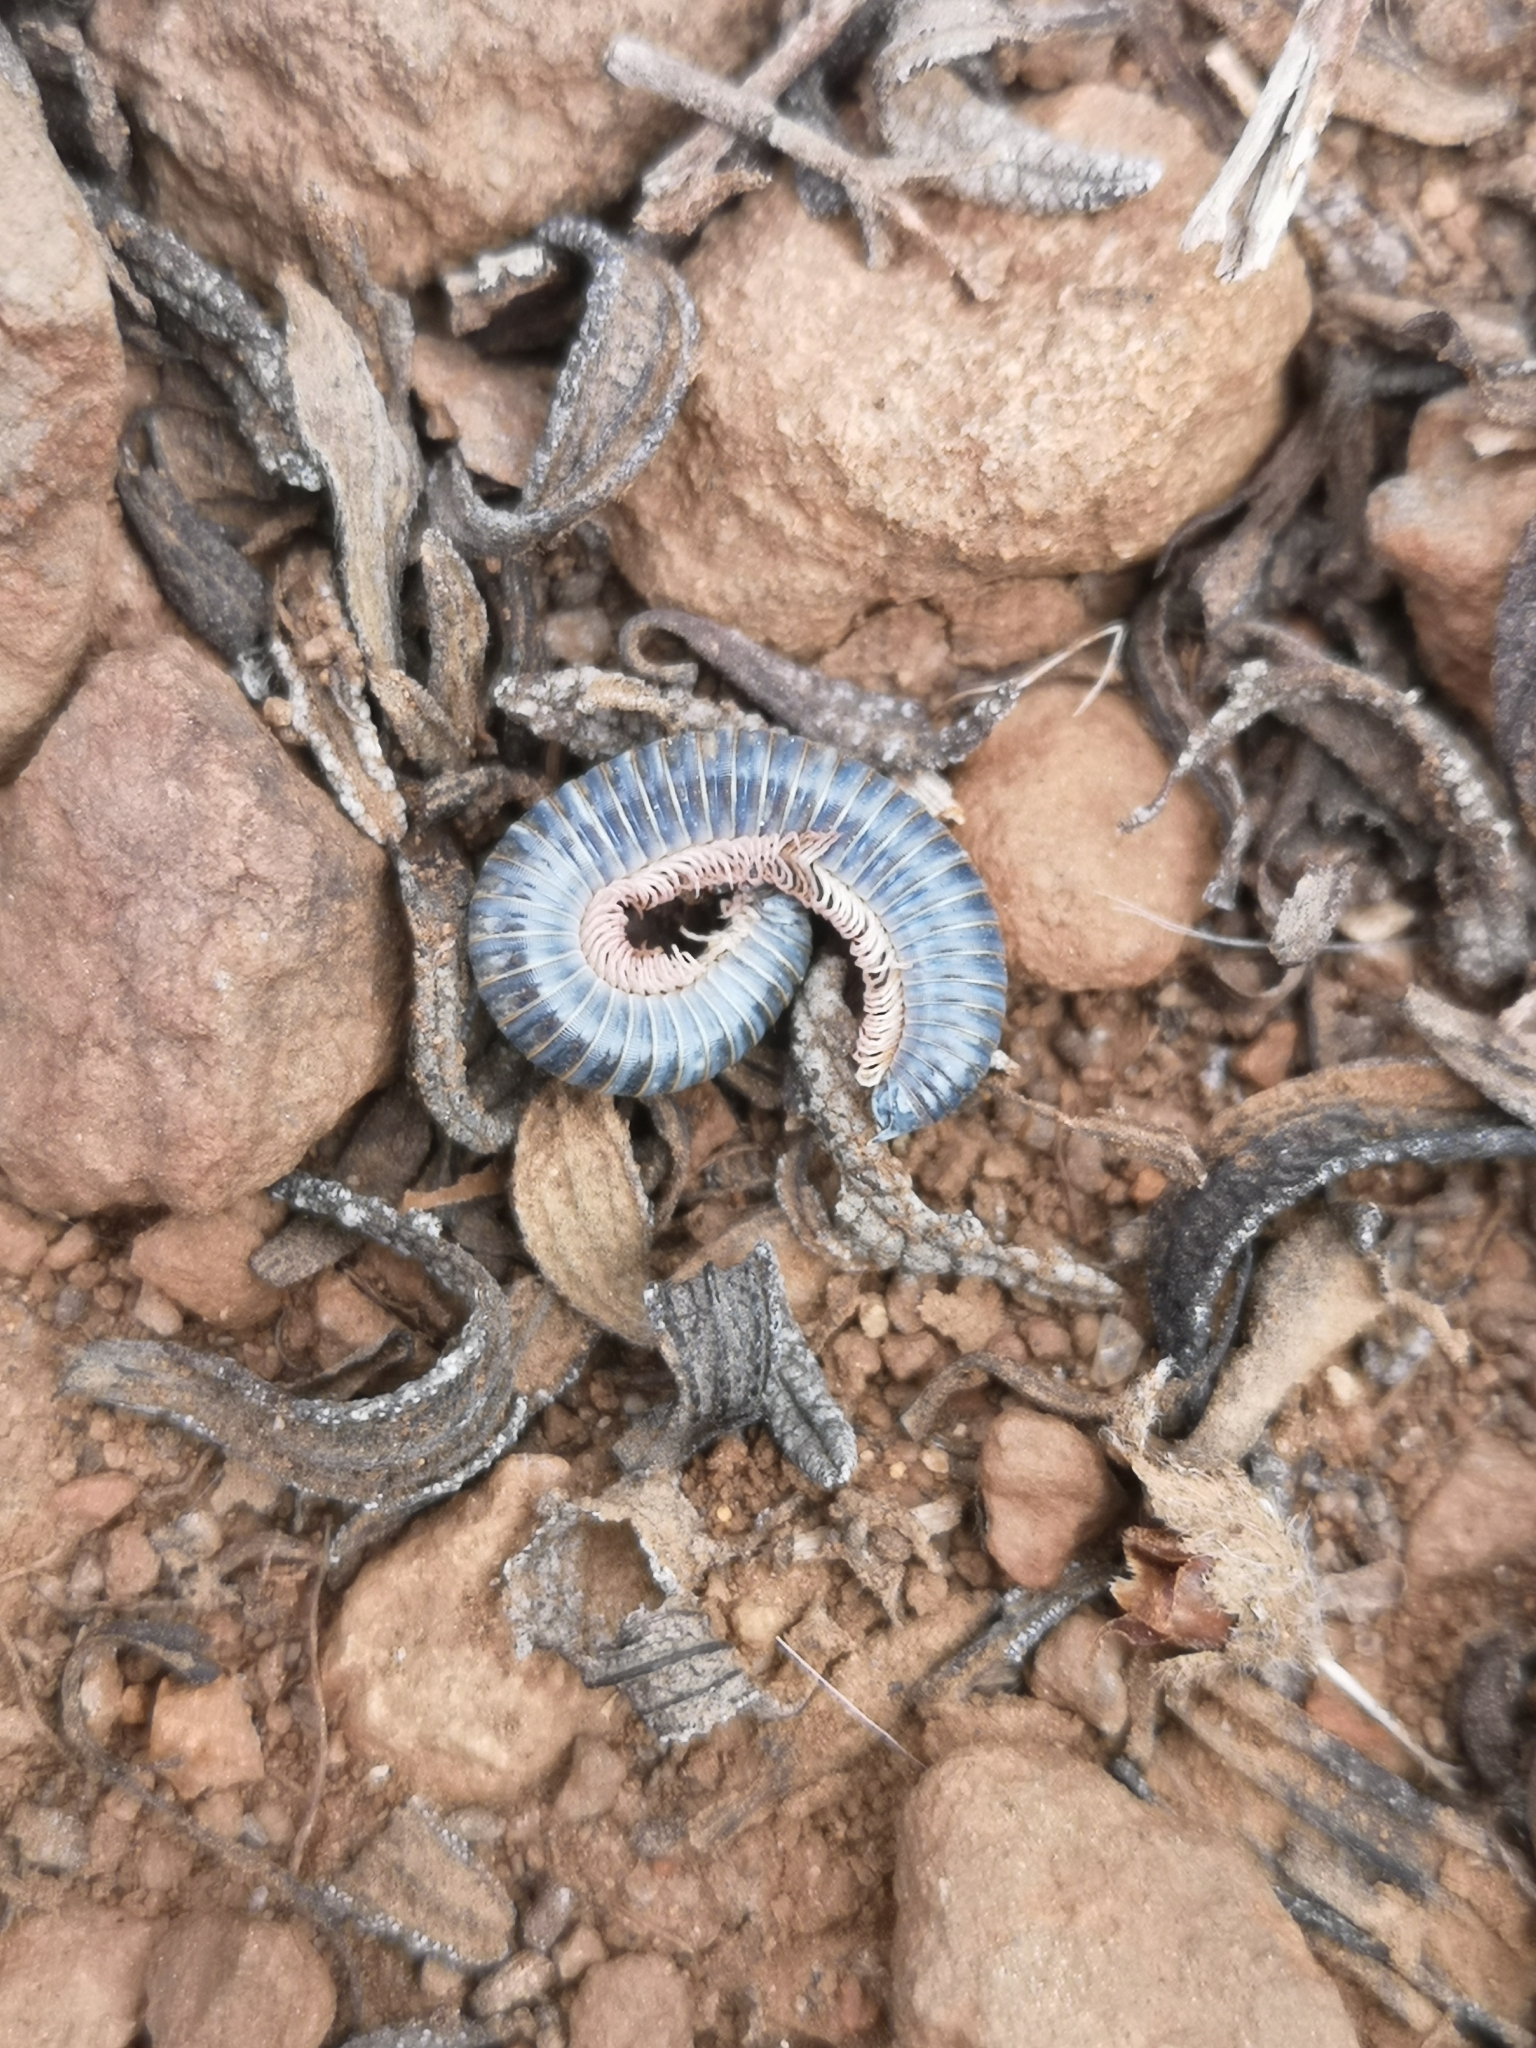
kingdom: Animalia
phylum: Arthropoda
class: Diplopoda
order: Julida
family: Julidae
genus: Ommatoiulus
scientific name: Ommatoiulus moreleti
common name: Portuguese millipede
